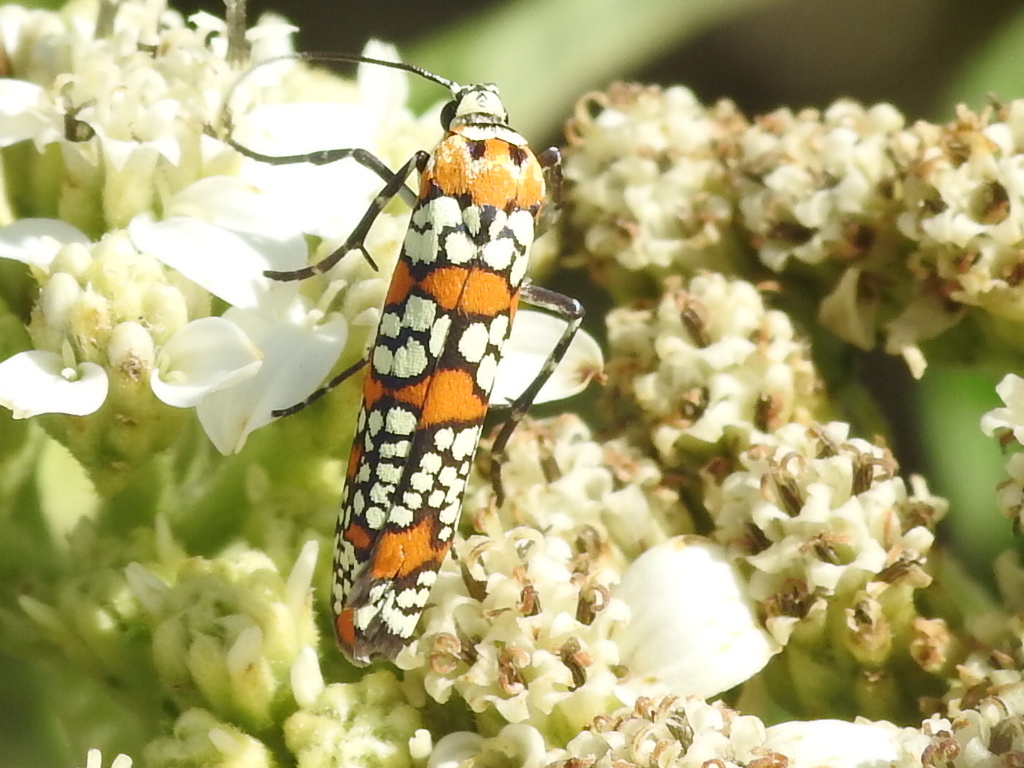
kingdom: Animalia
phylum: Arthropoda
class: Insecta
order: Lepidoptera
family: Attevidae
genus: Atteva
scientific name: Atteva punctella
